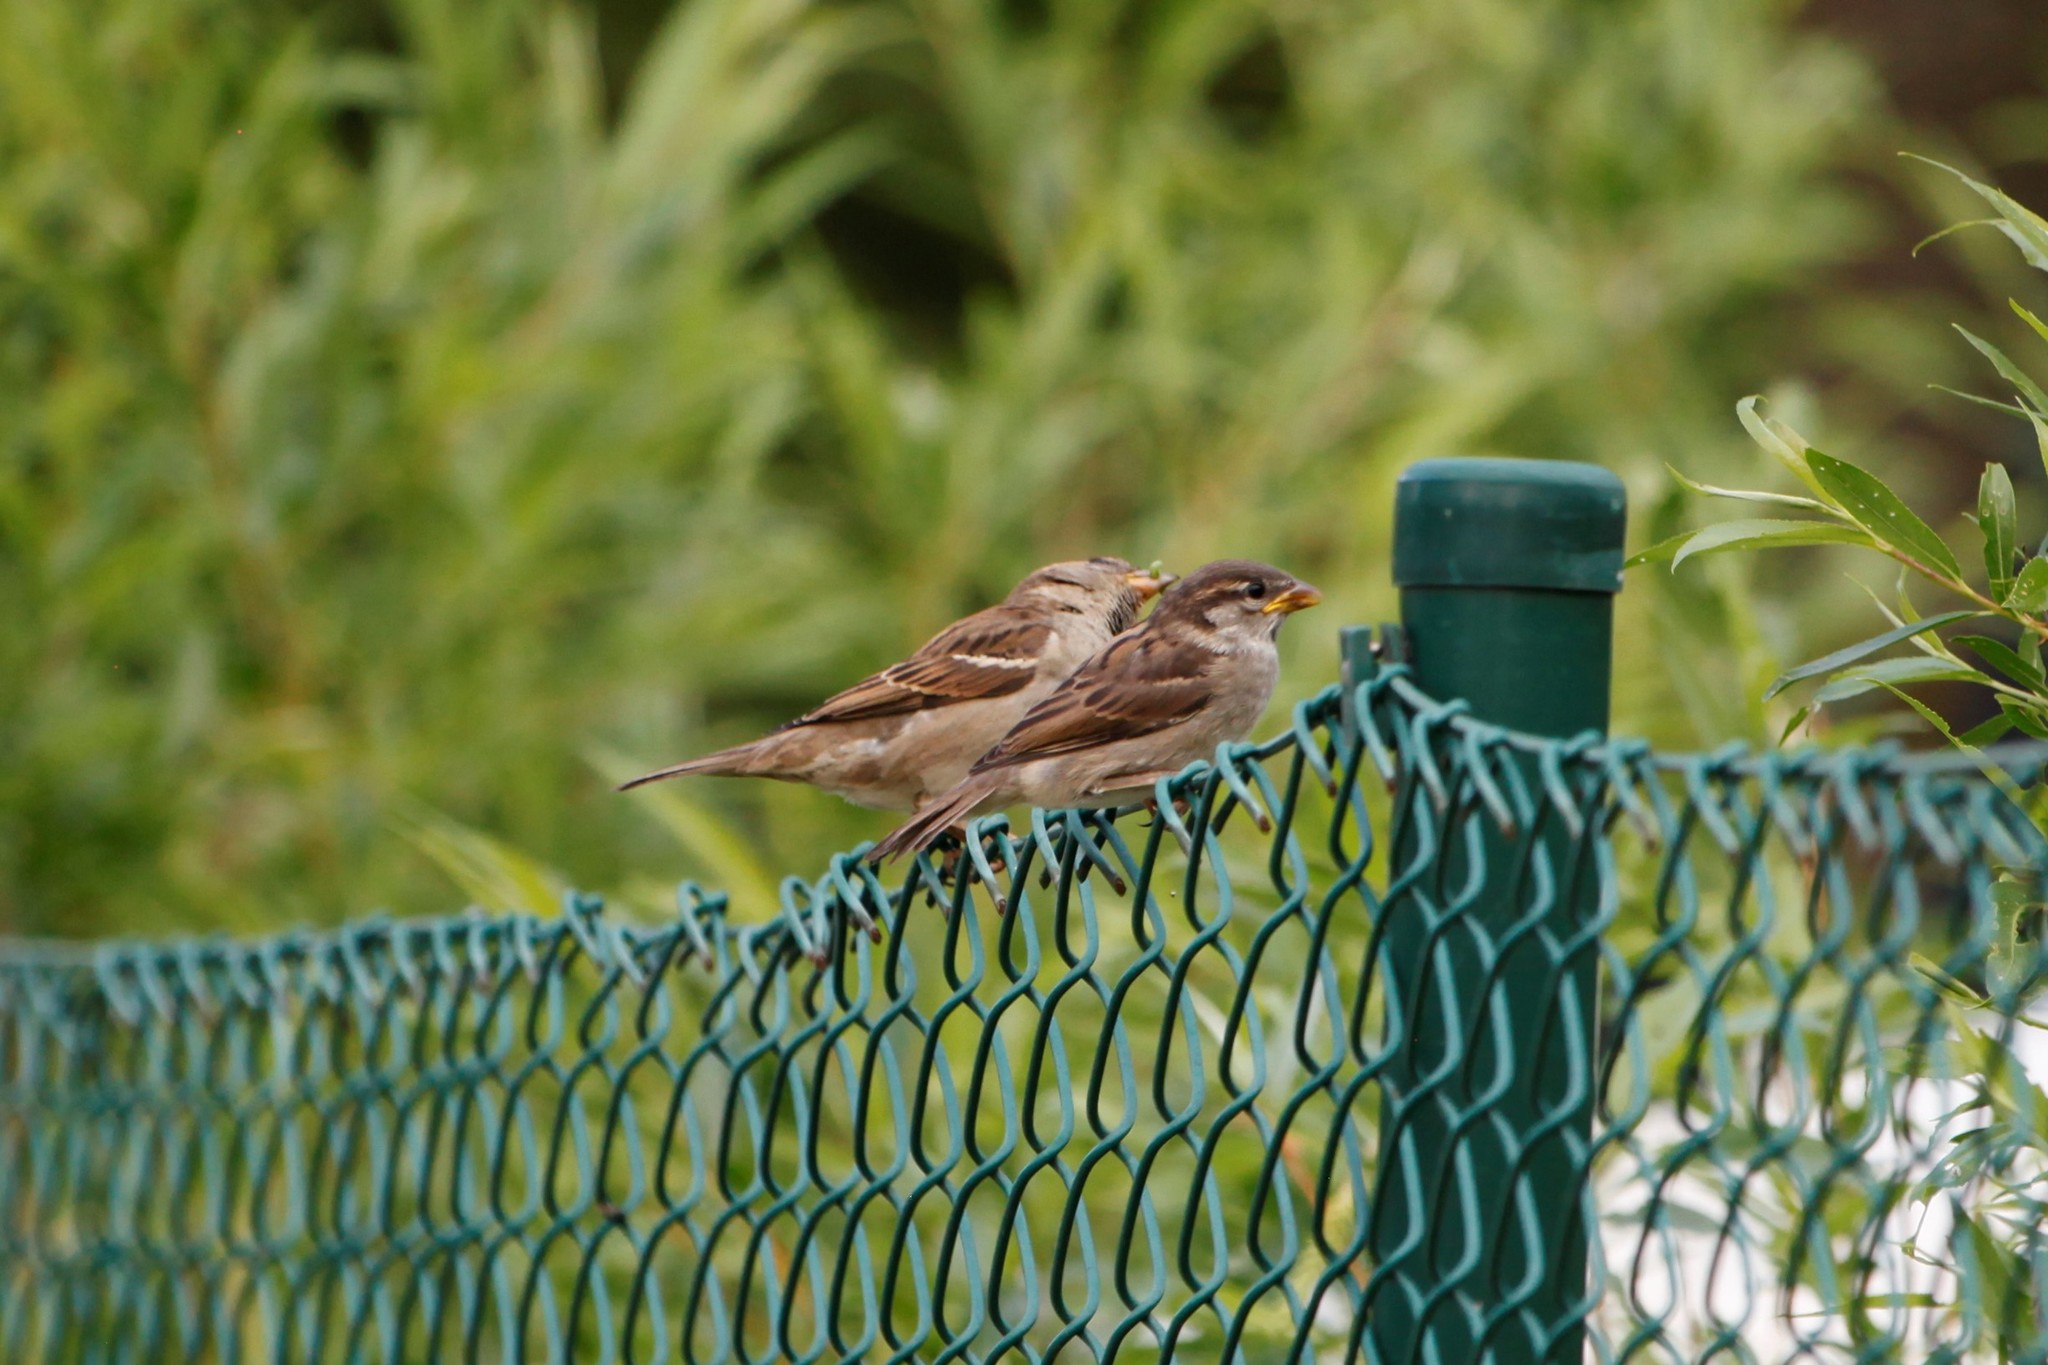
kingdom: Animalia
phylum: Chordata
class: Aves
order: Passeriformes
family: Passeridae
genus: Passer
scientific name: Passer domesticus
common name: House sparrow
